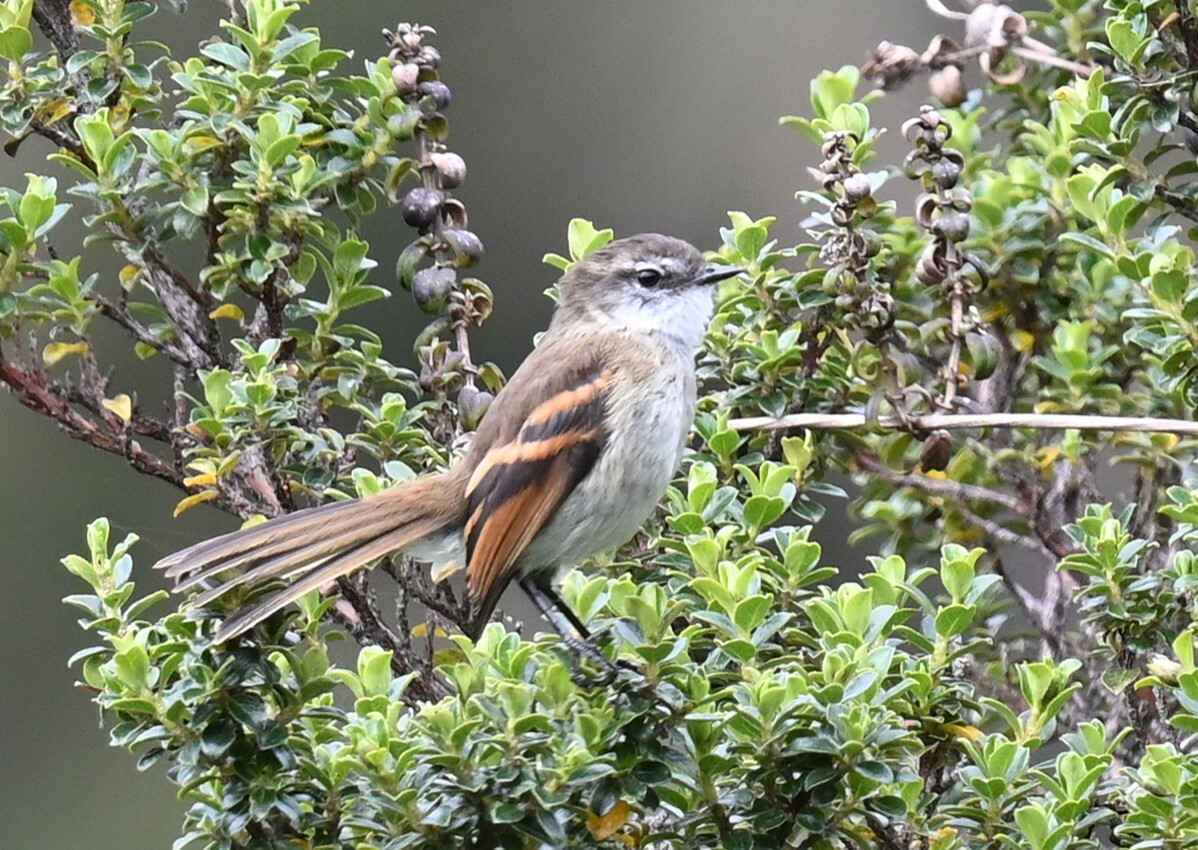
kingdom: Animalia
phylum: Chordata
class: Aves
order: Passeriformes
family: Tyrannidae
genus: Mecocerculus
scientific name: Mecocerculus leucophrys
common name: White-throated tyrannulet
